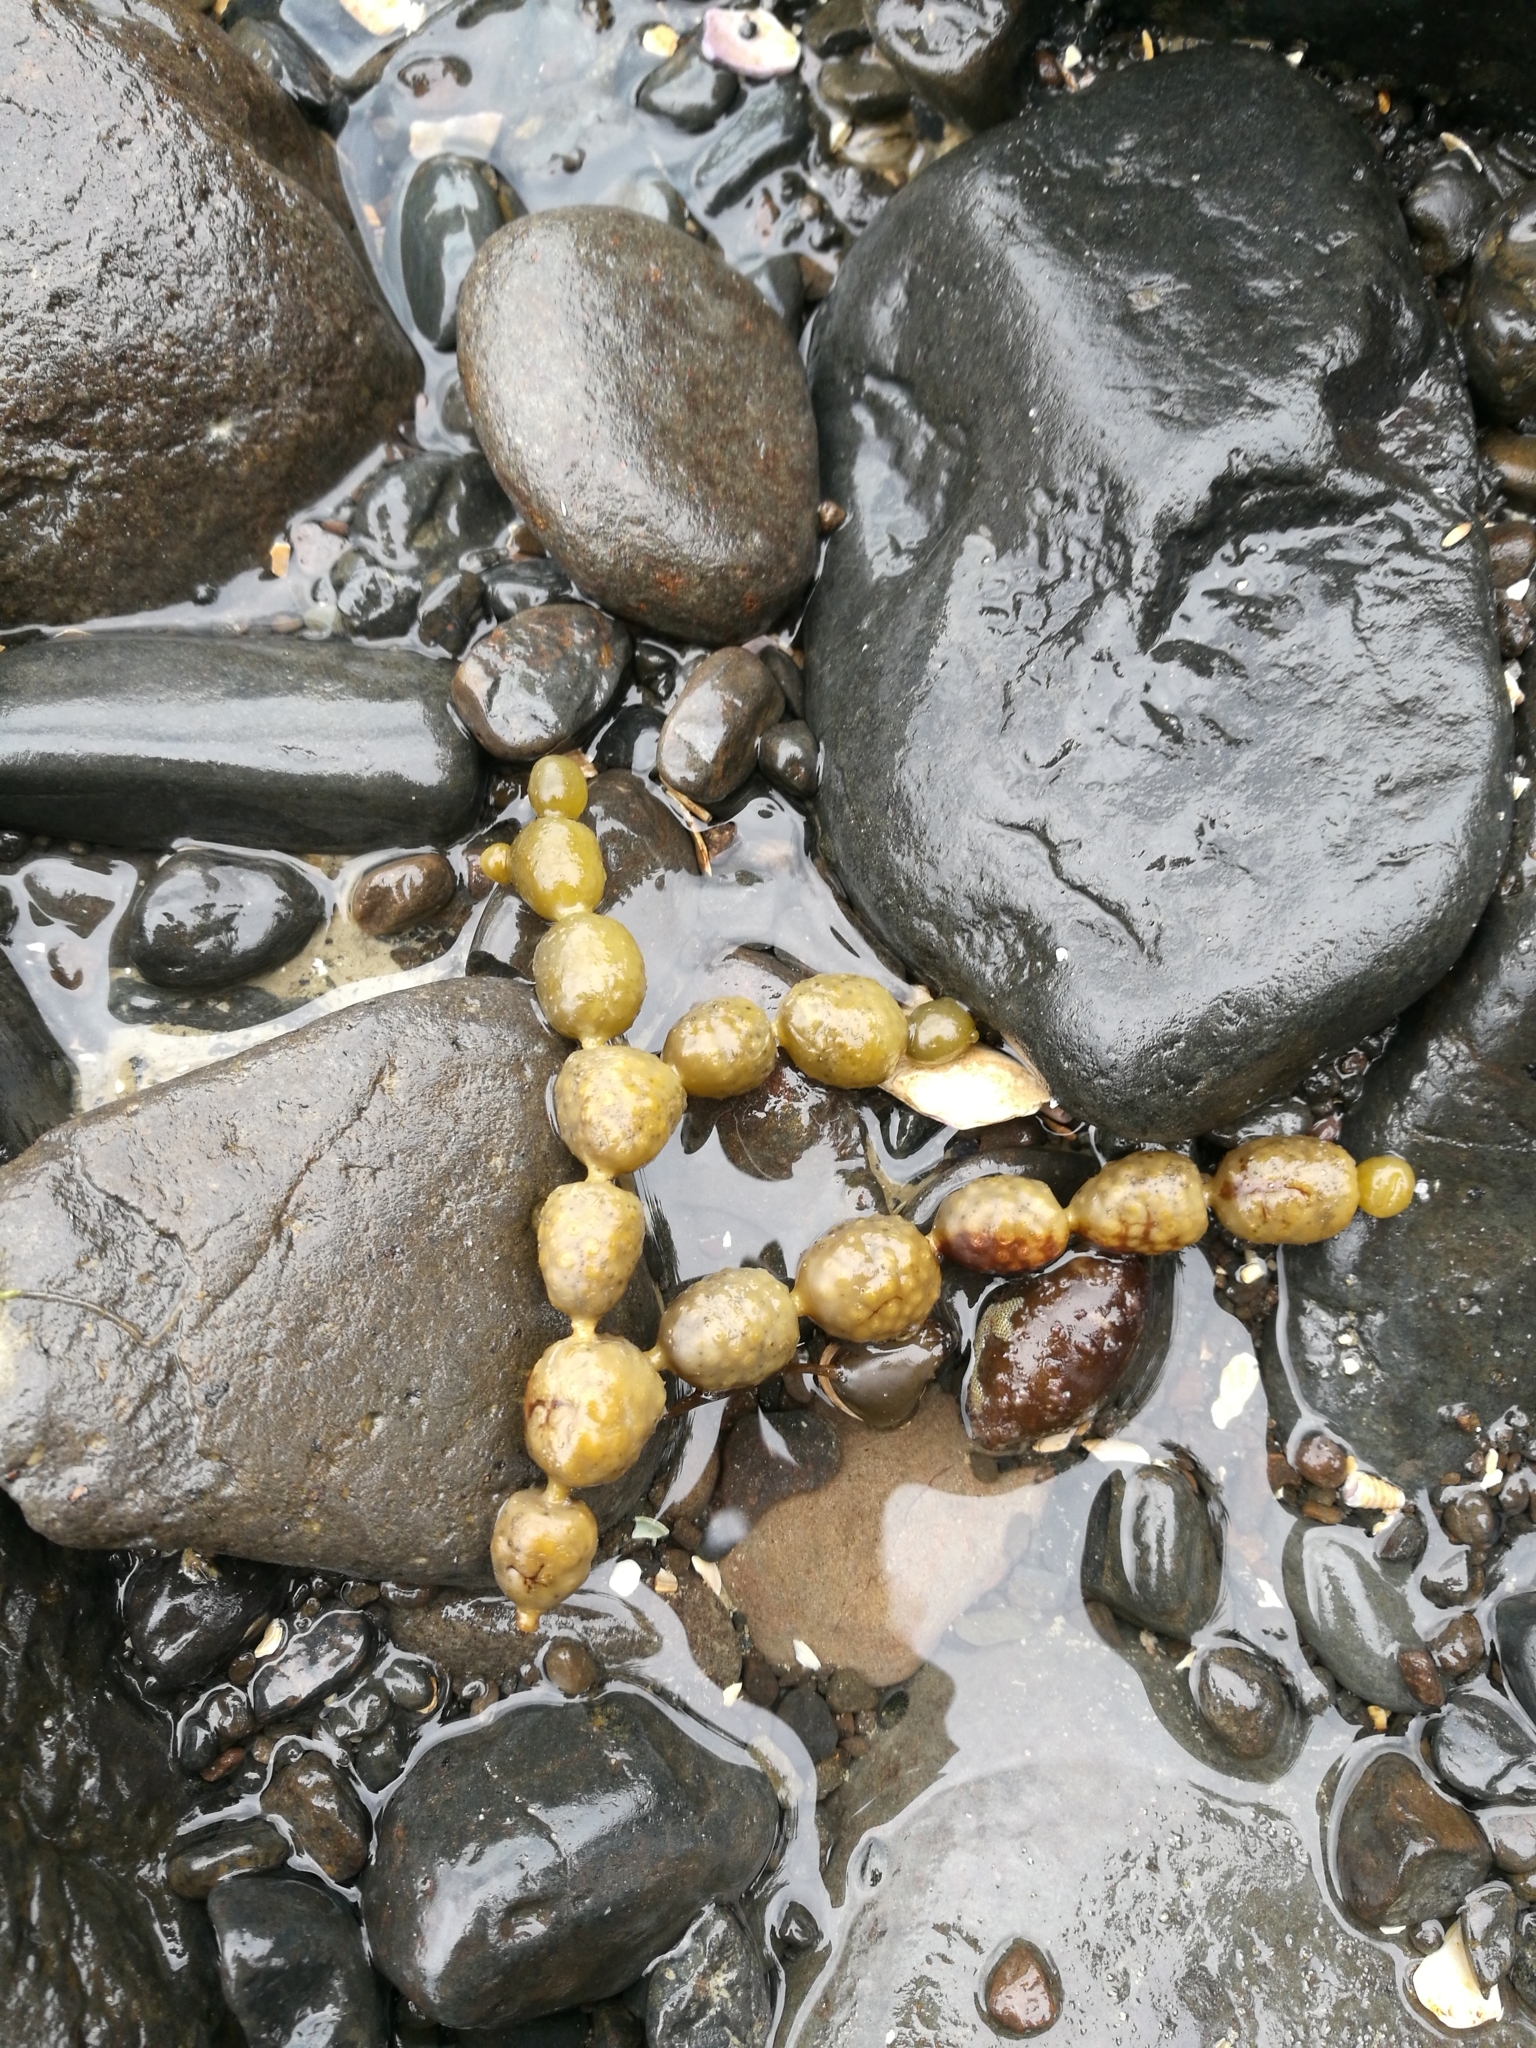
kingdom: Chromista
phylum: Ochrophyta
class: Phaeophyceae
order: Fucales
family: Hormosiraceae
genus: Hormosira
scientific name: Hormosira banksii
